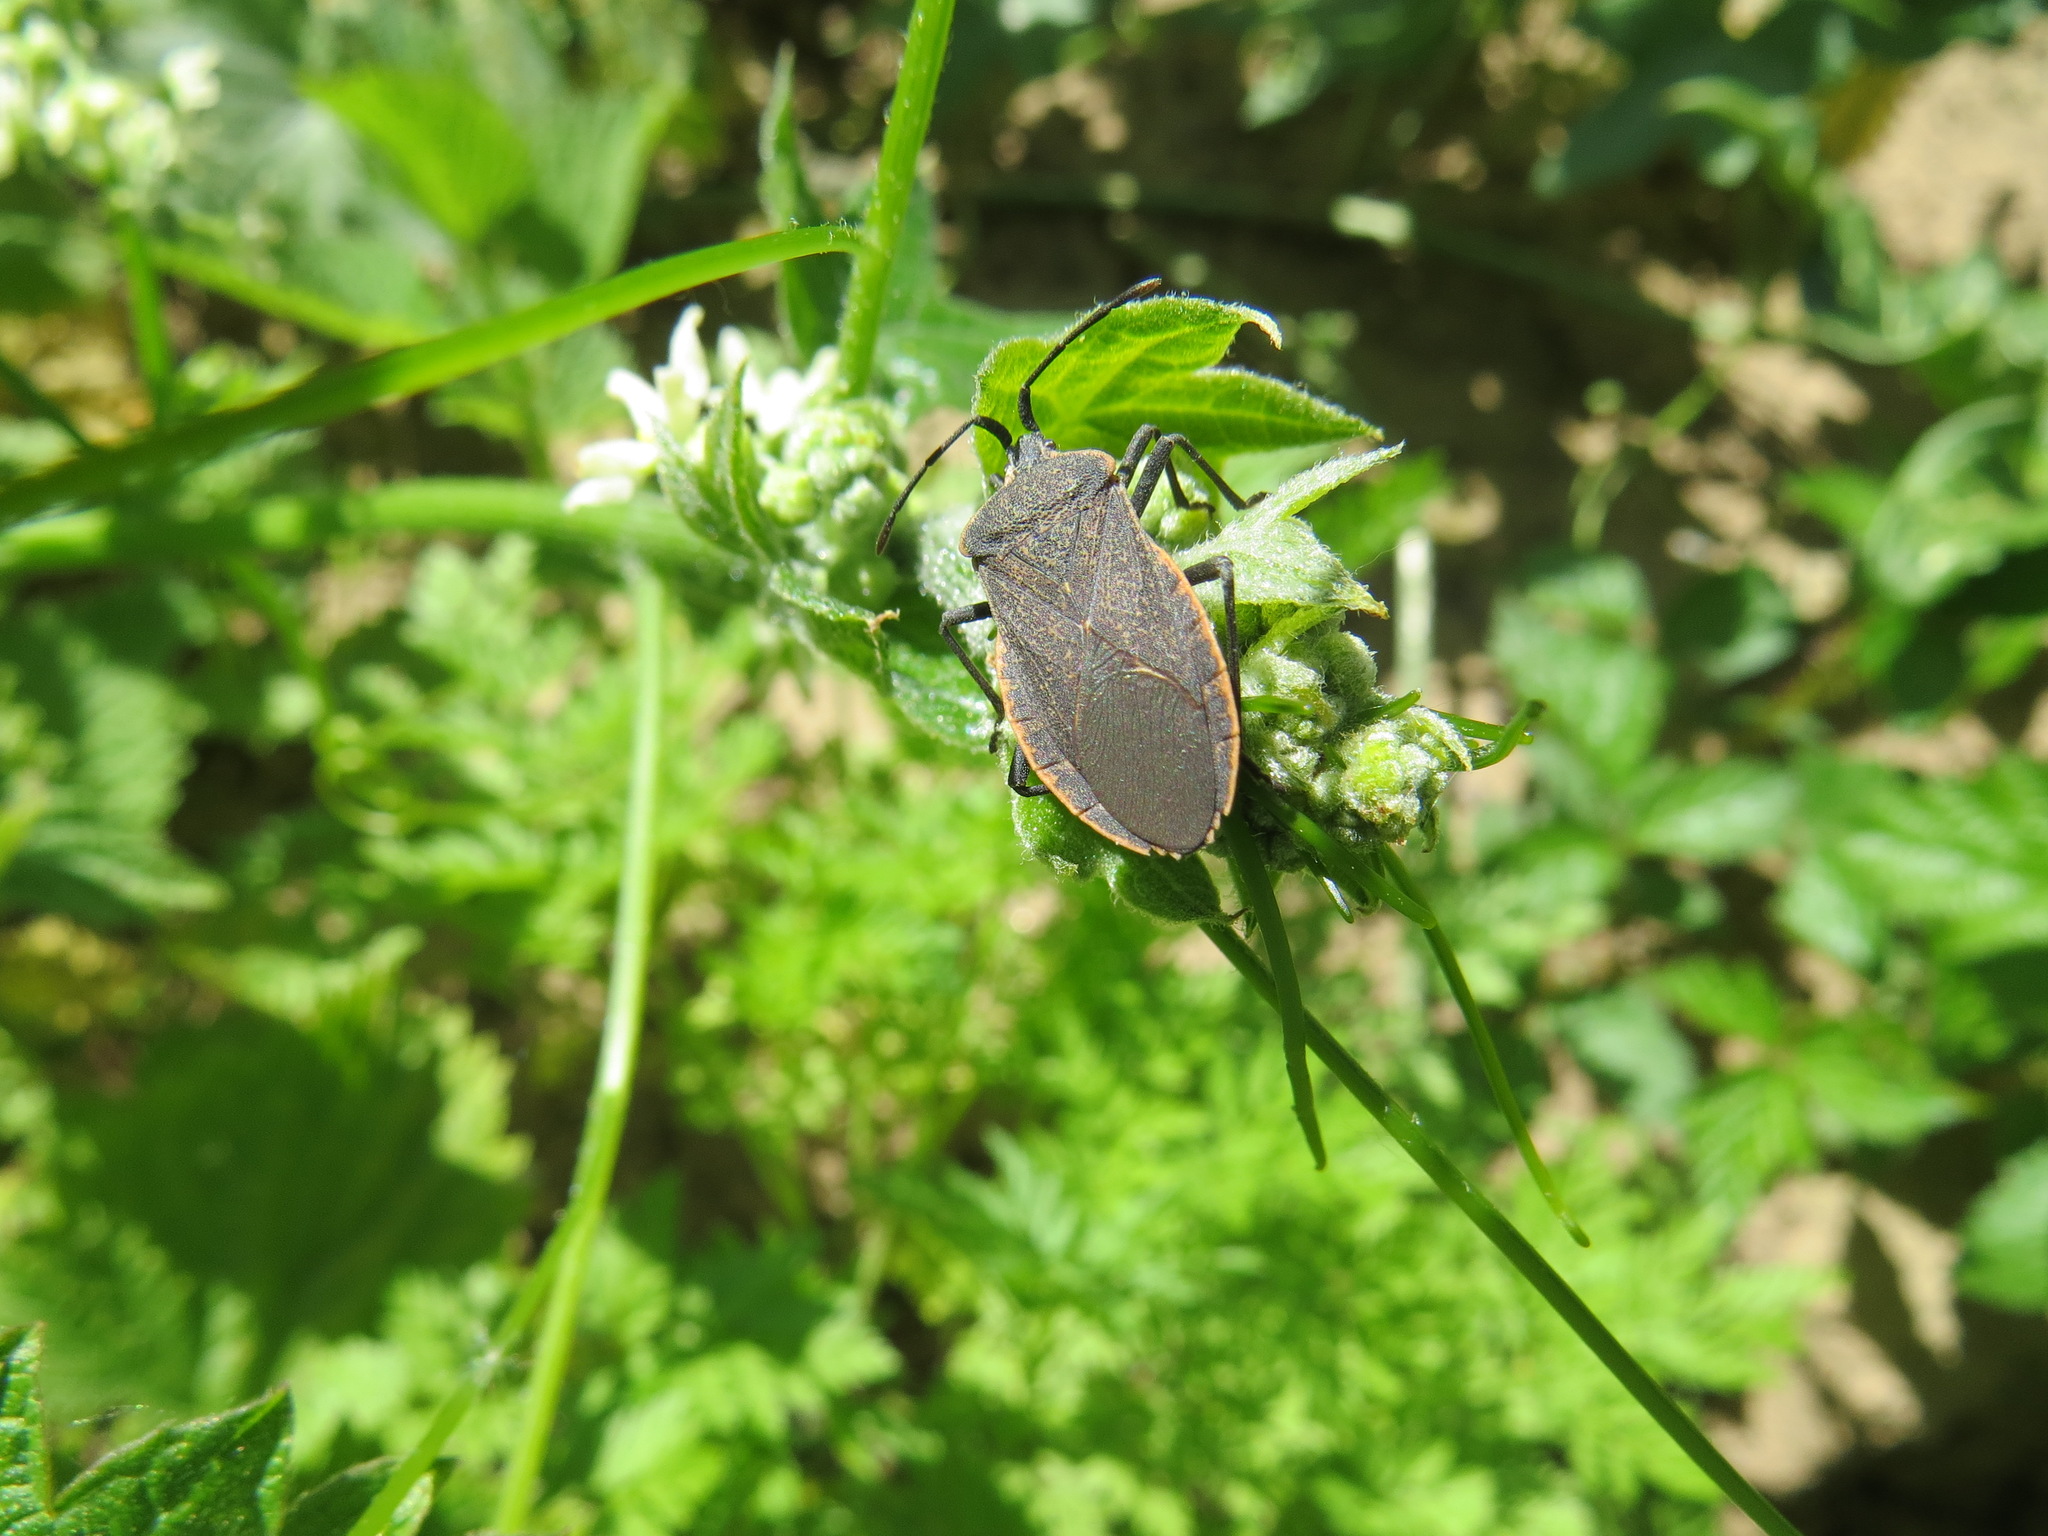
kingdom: Animalia
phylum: Arthropoda
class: Insecta
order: Hemiptera
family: Coreidae
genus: Anasa
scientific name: Anasa tristis
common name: Squash bug
